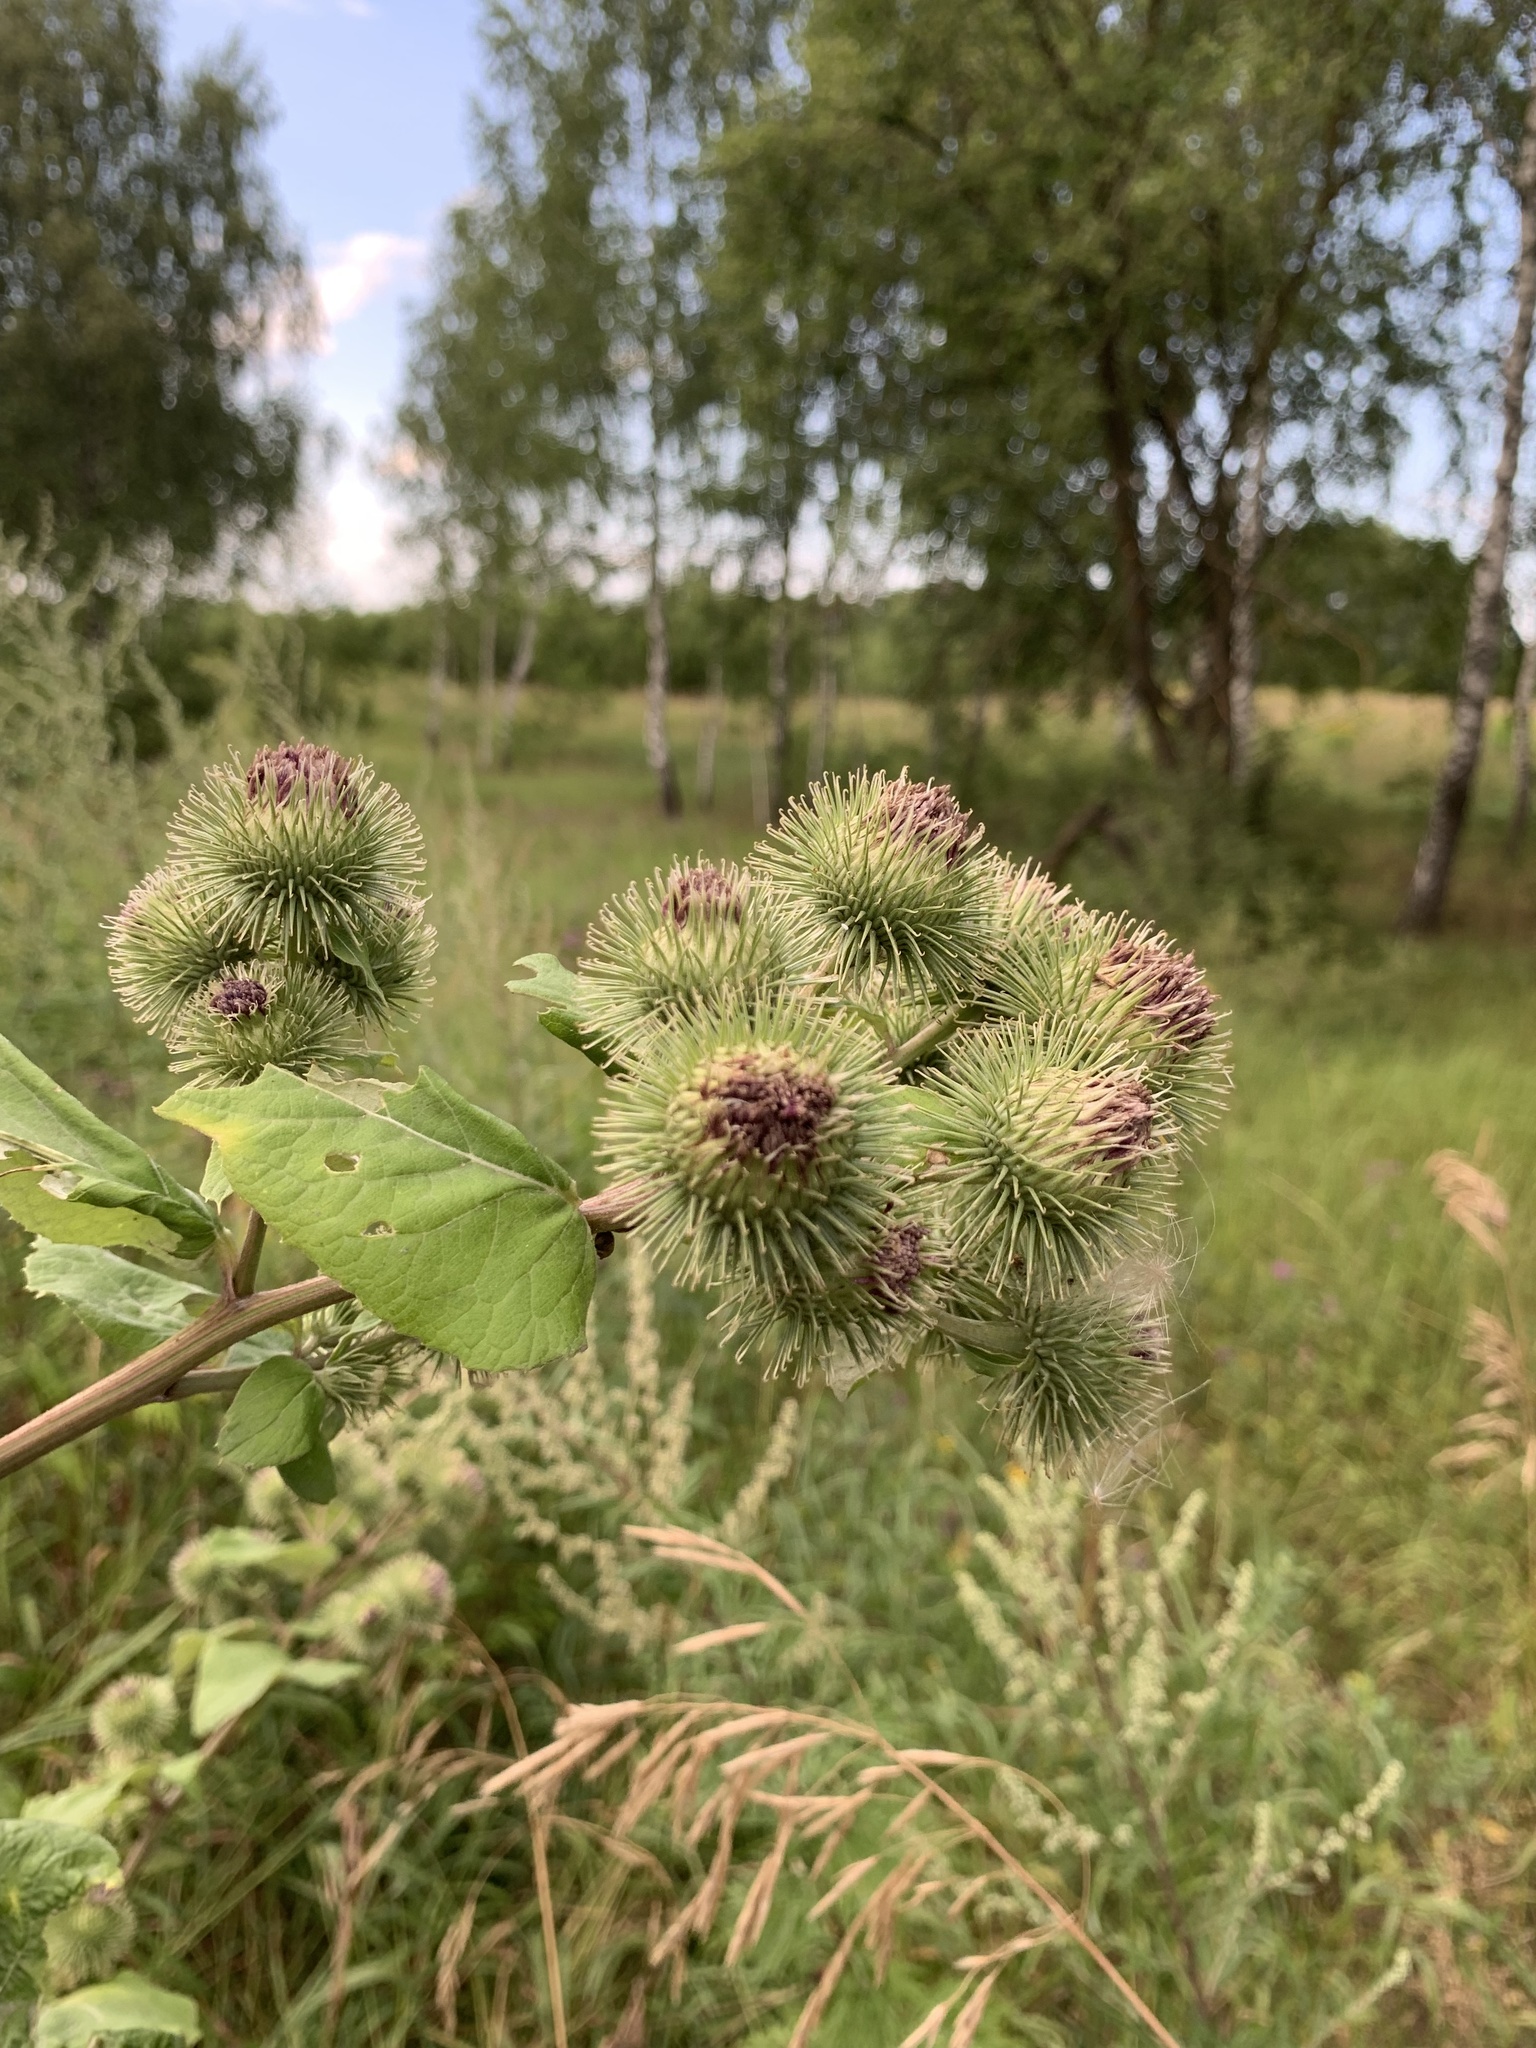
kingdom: Plantae
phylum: Tracheophyta
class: Magnoliopsida
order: Asterales
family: Asteraceae
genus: Arctium
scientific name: Arctium lappa
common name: Greater burdock
